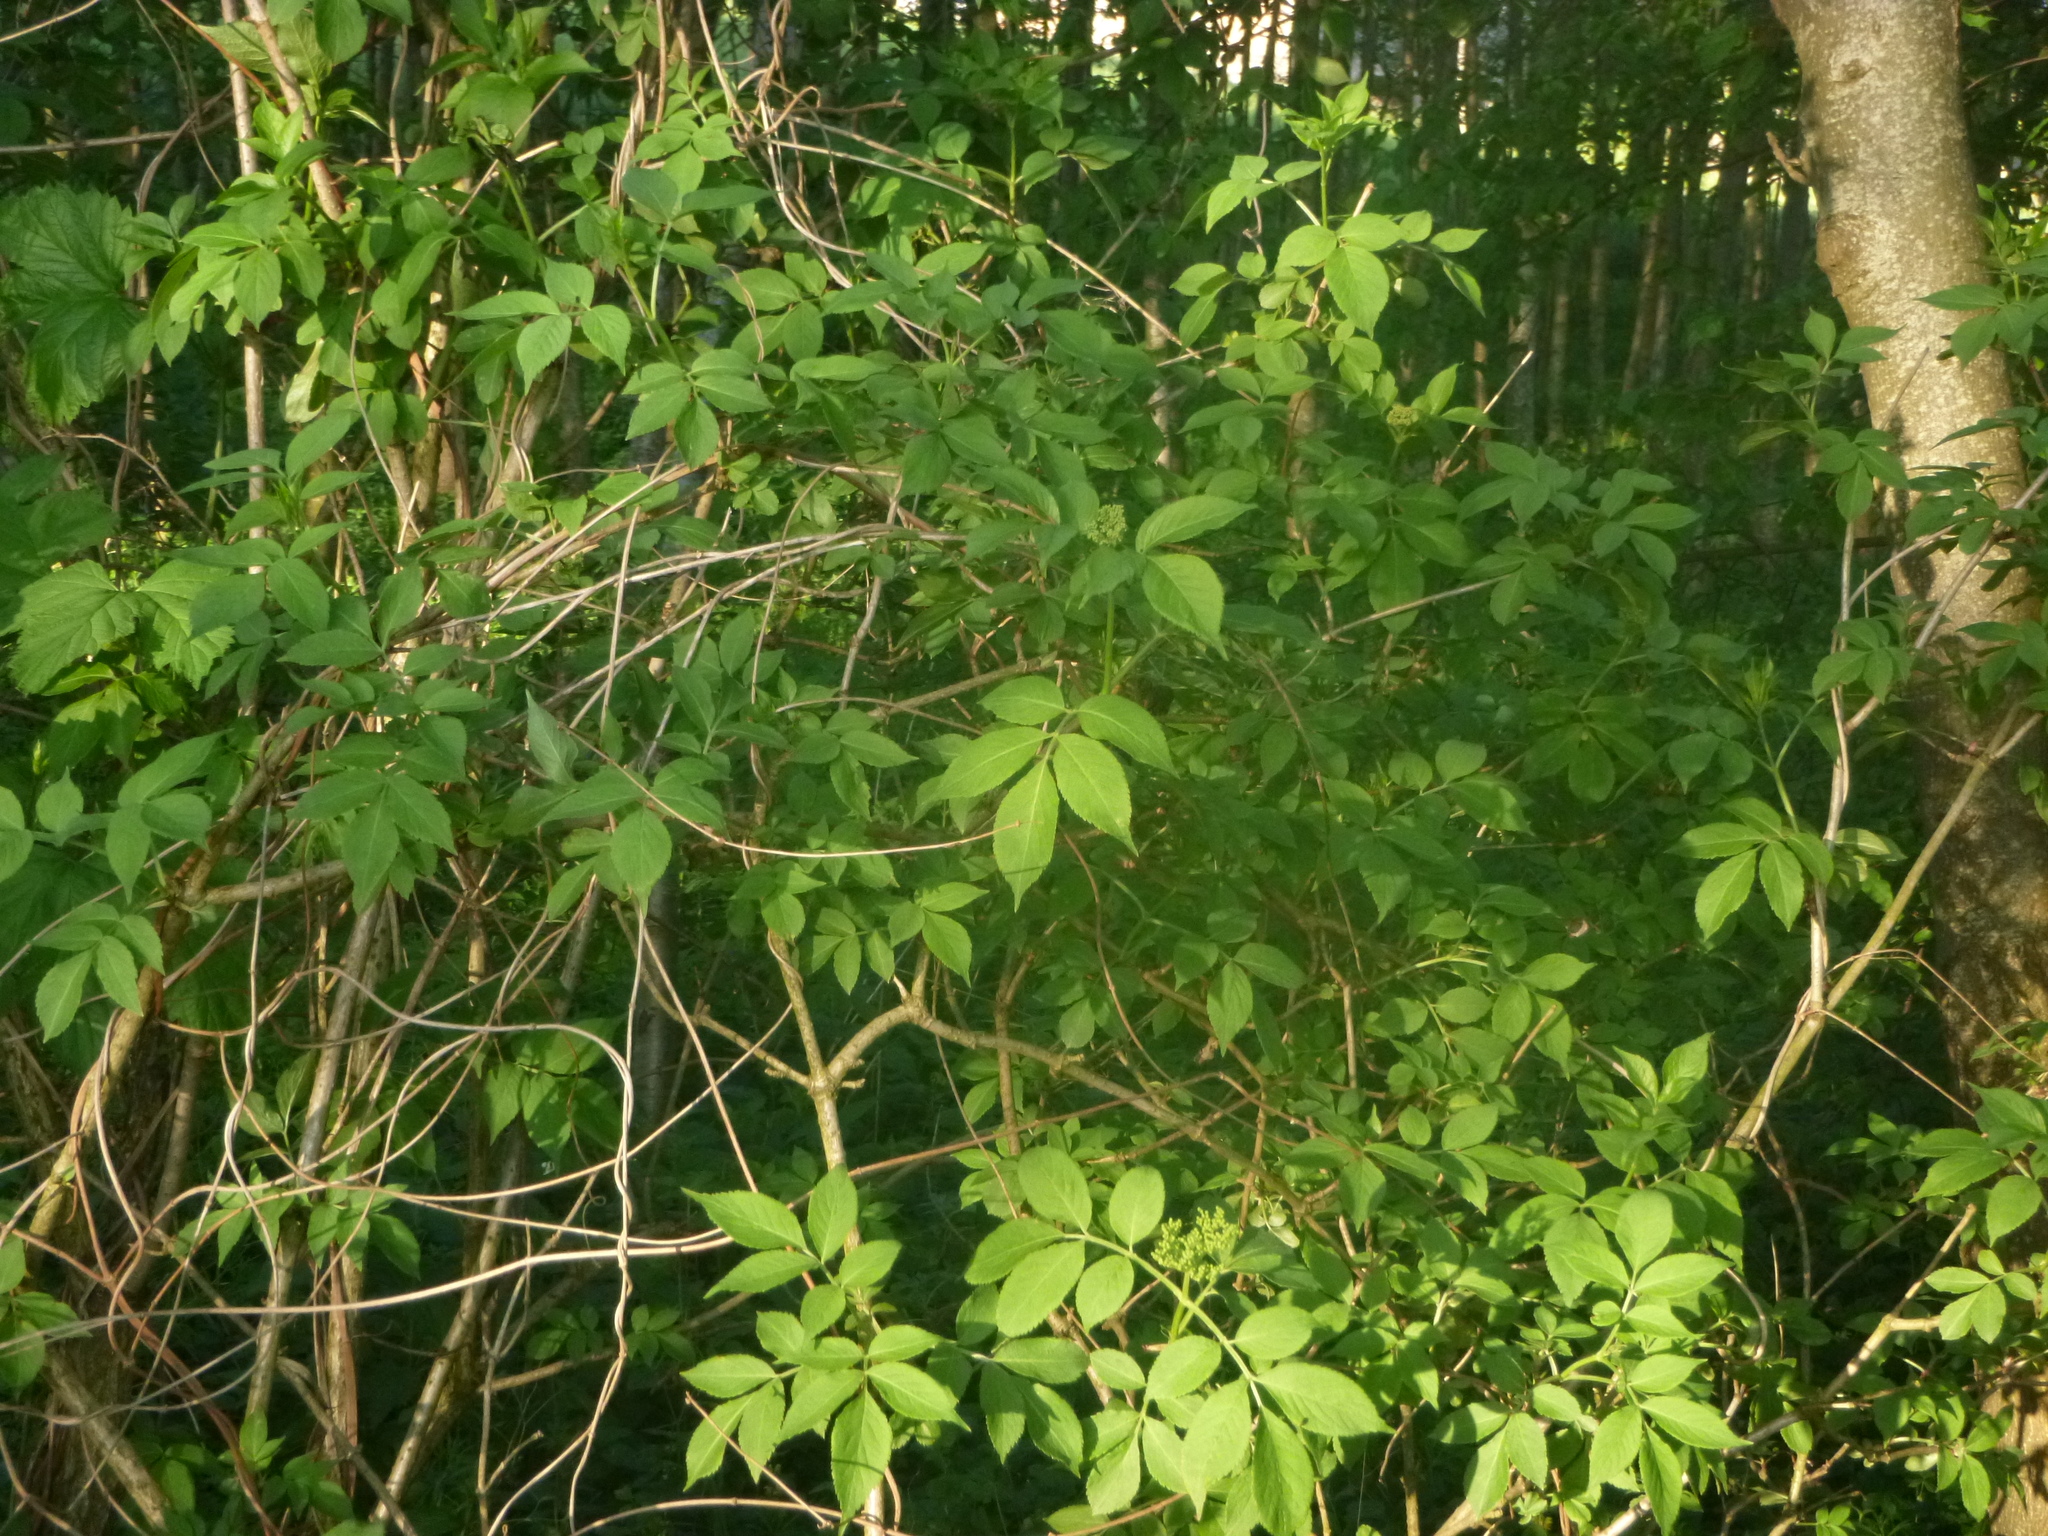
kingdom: Plantae
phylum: Tracheophyta
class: Magnoliopsida
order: Dipsacales
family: Viburnaceae
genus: Sambucus
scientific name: Sambucus nigra
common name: Elder
